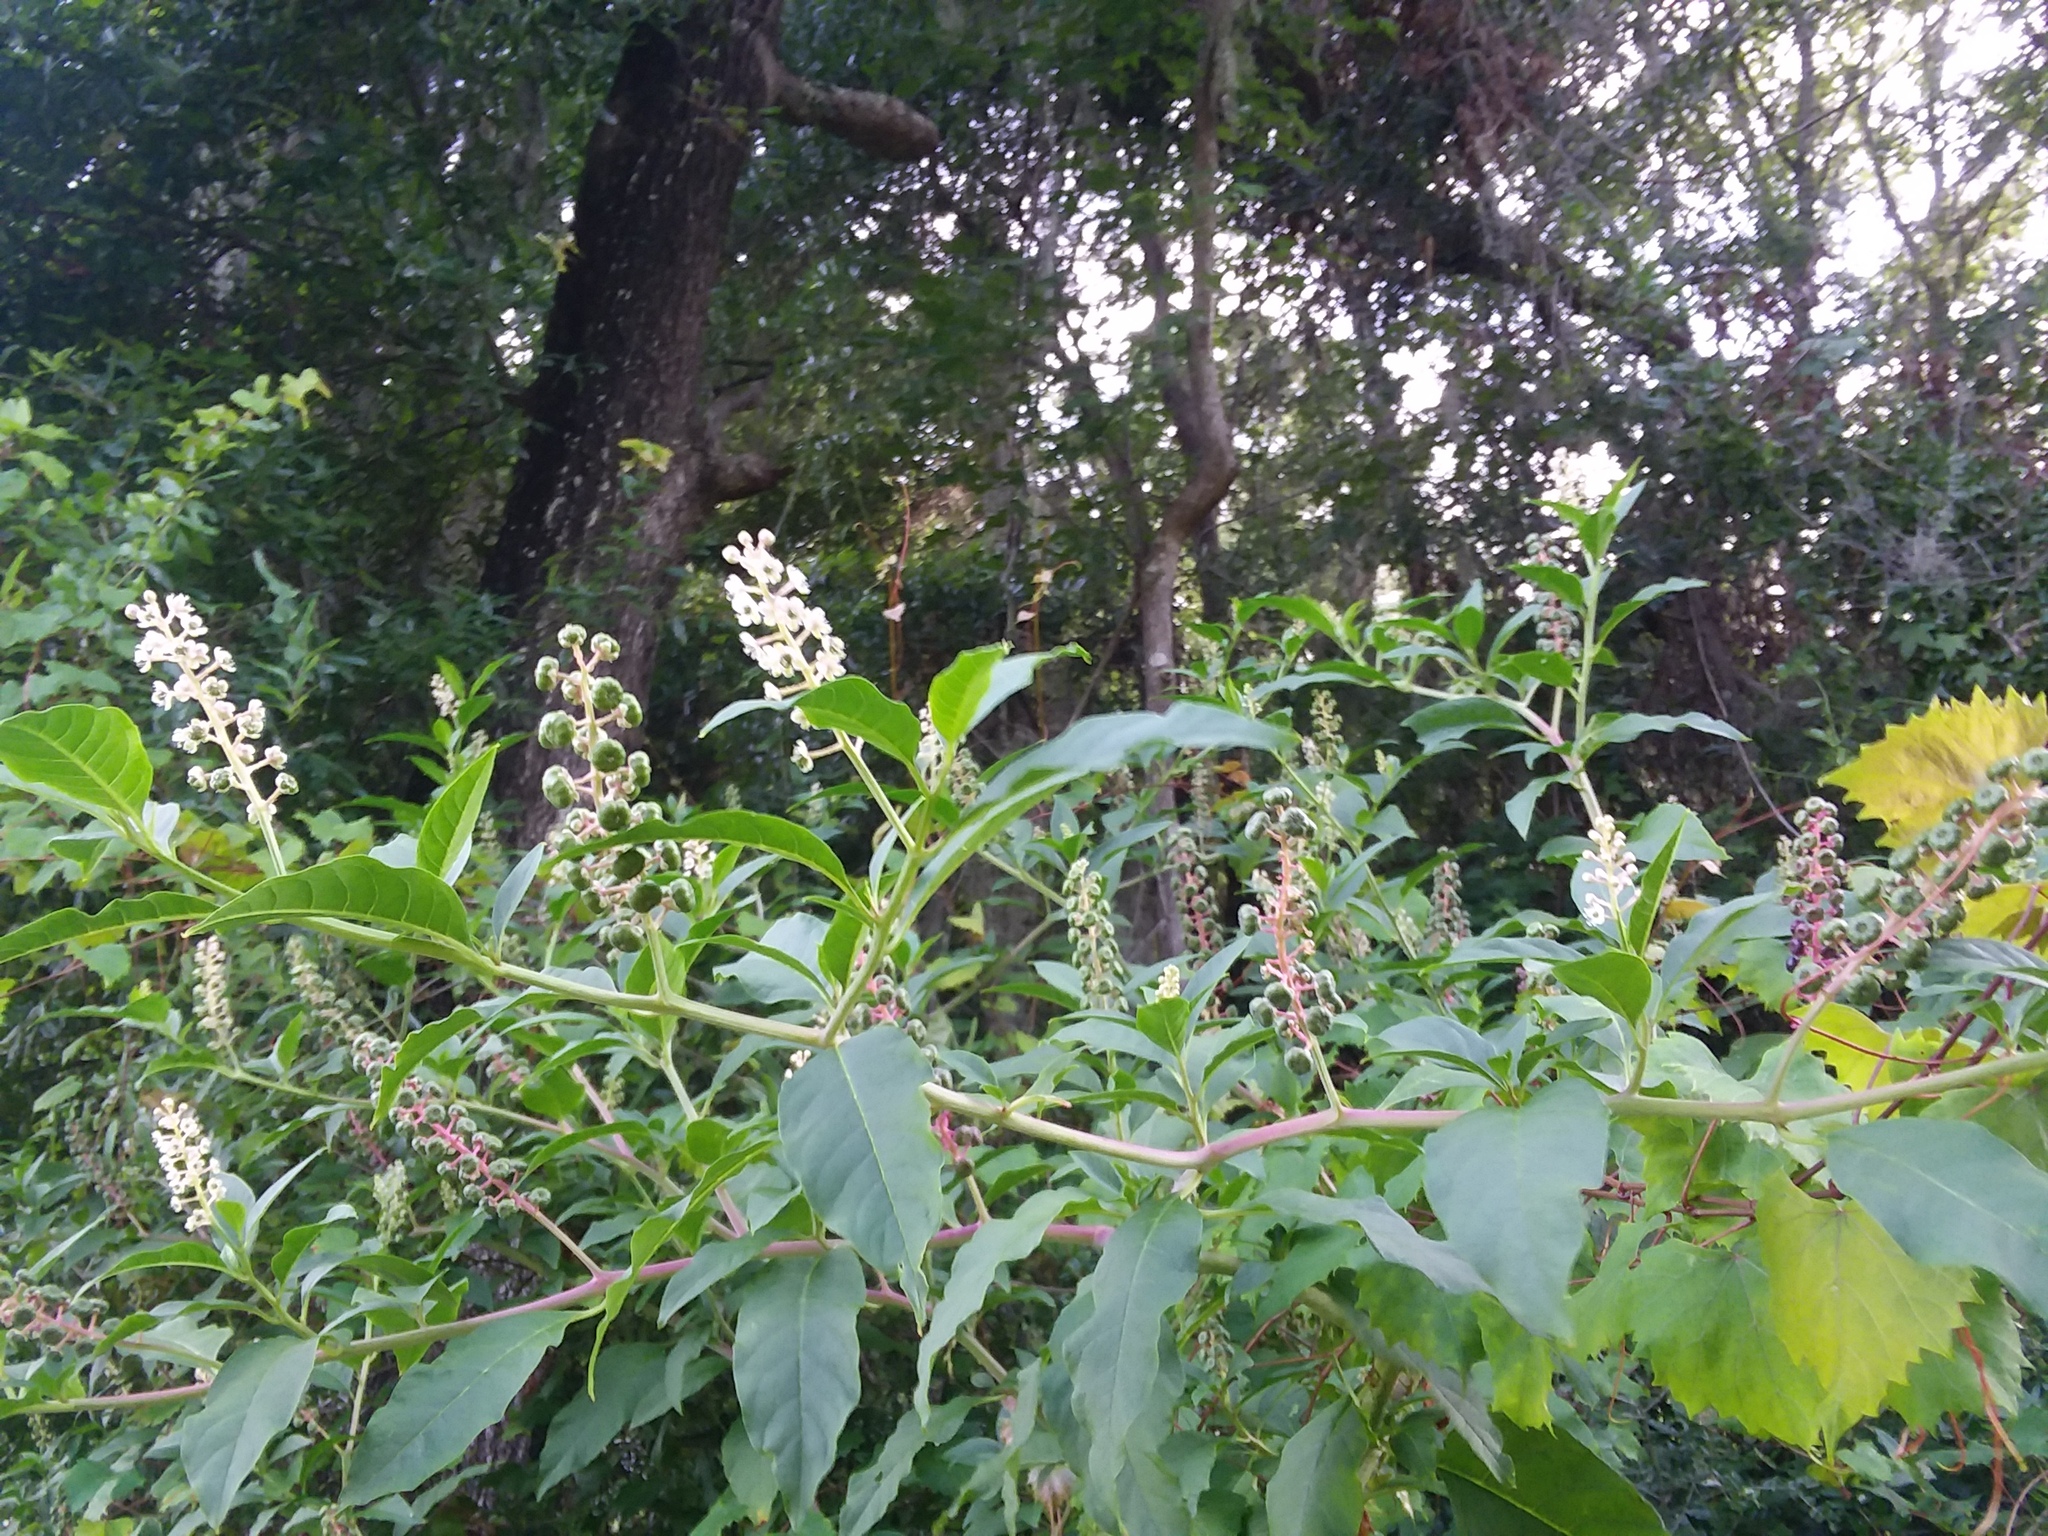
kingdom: Plantae
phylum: Tracheophyta
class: Magnoliopsida
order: Caryophyllales
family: Phytolaccaceae
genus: Phytolacca
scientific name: Phytolacca americana
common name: American pokeweed
